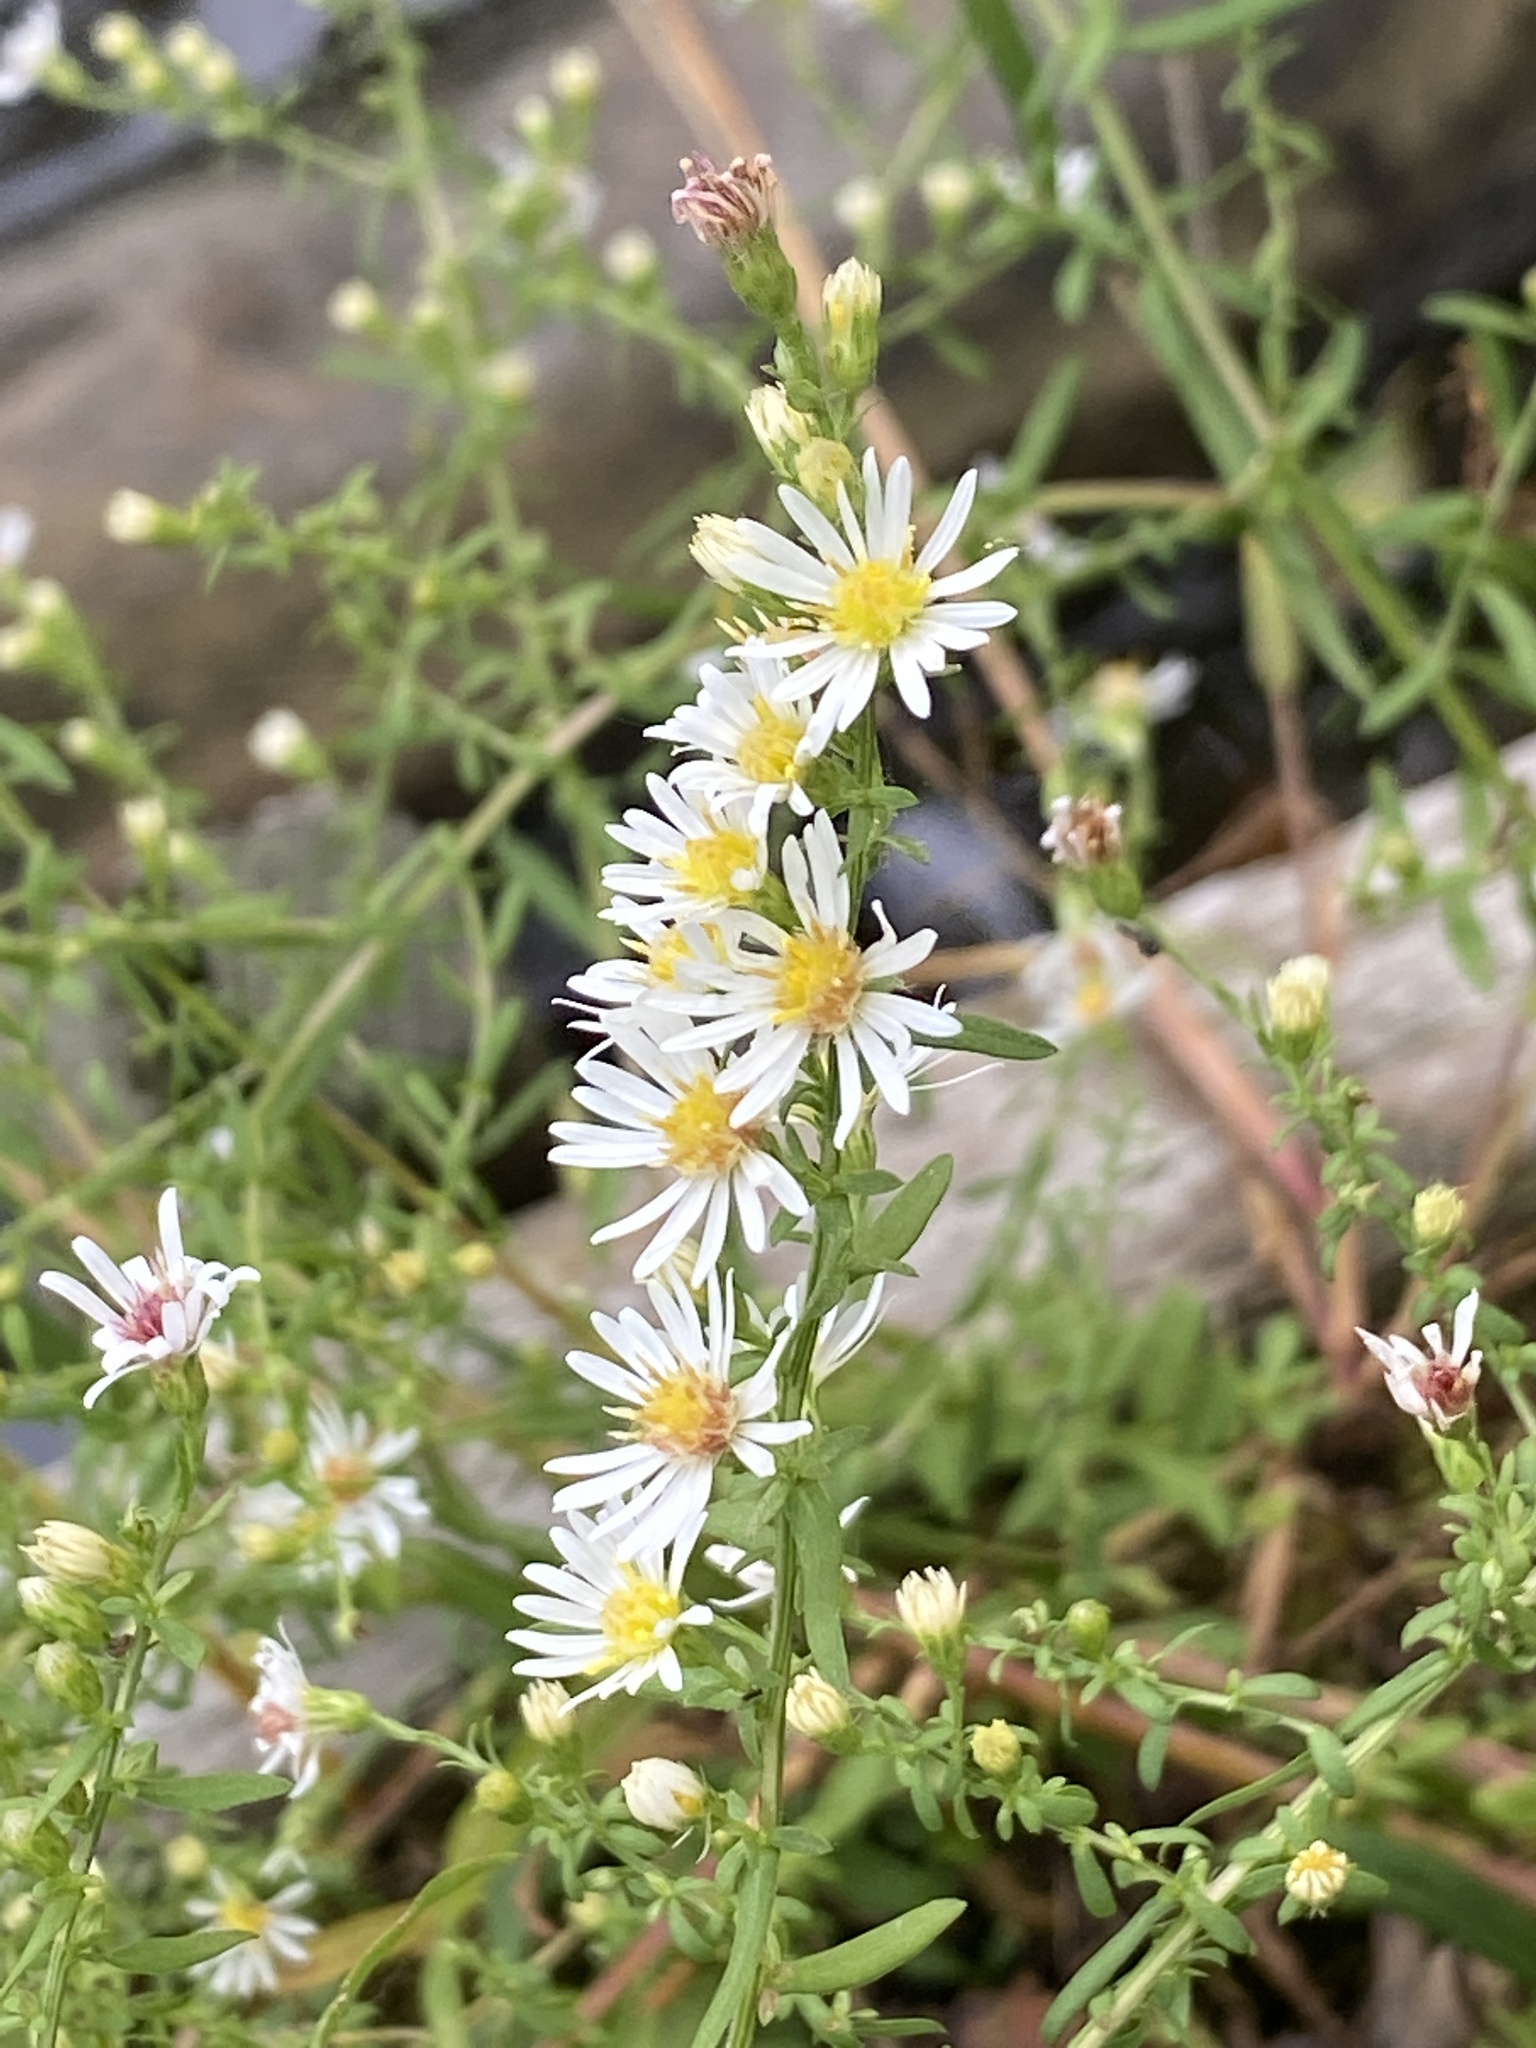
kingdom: Plantae
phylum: Tracheophyta
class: Magnoliopsida
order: Asterales
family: Asteraceae
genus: Symphyotrichum
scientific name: Symphyotrichum racemosum
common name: Small white aster
